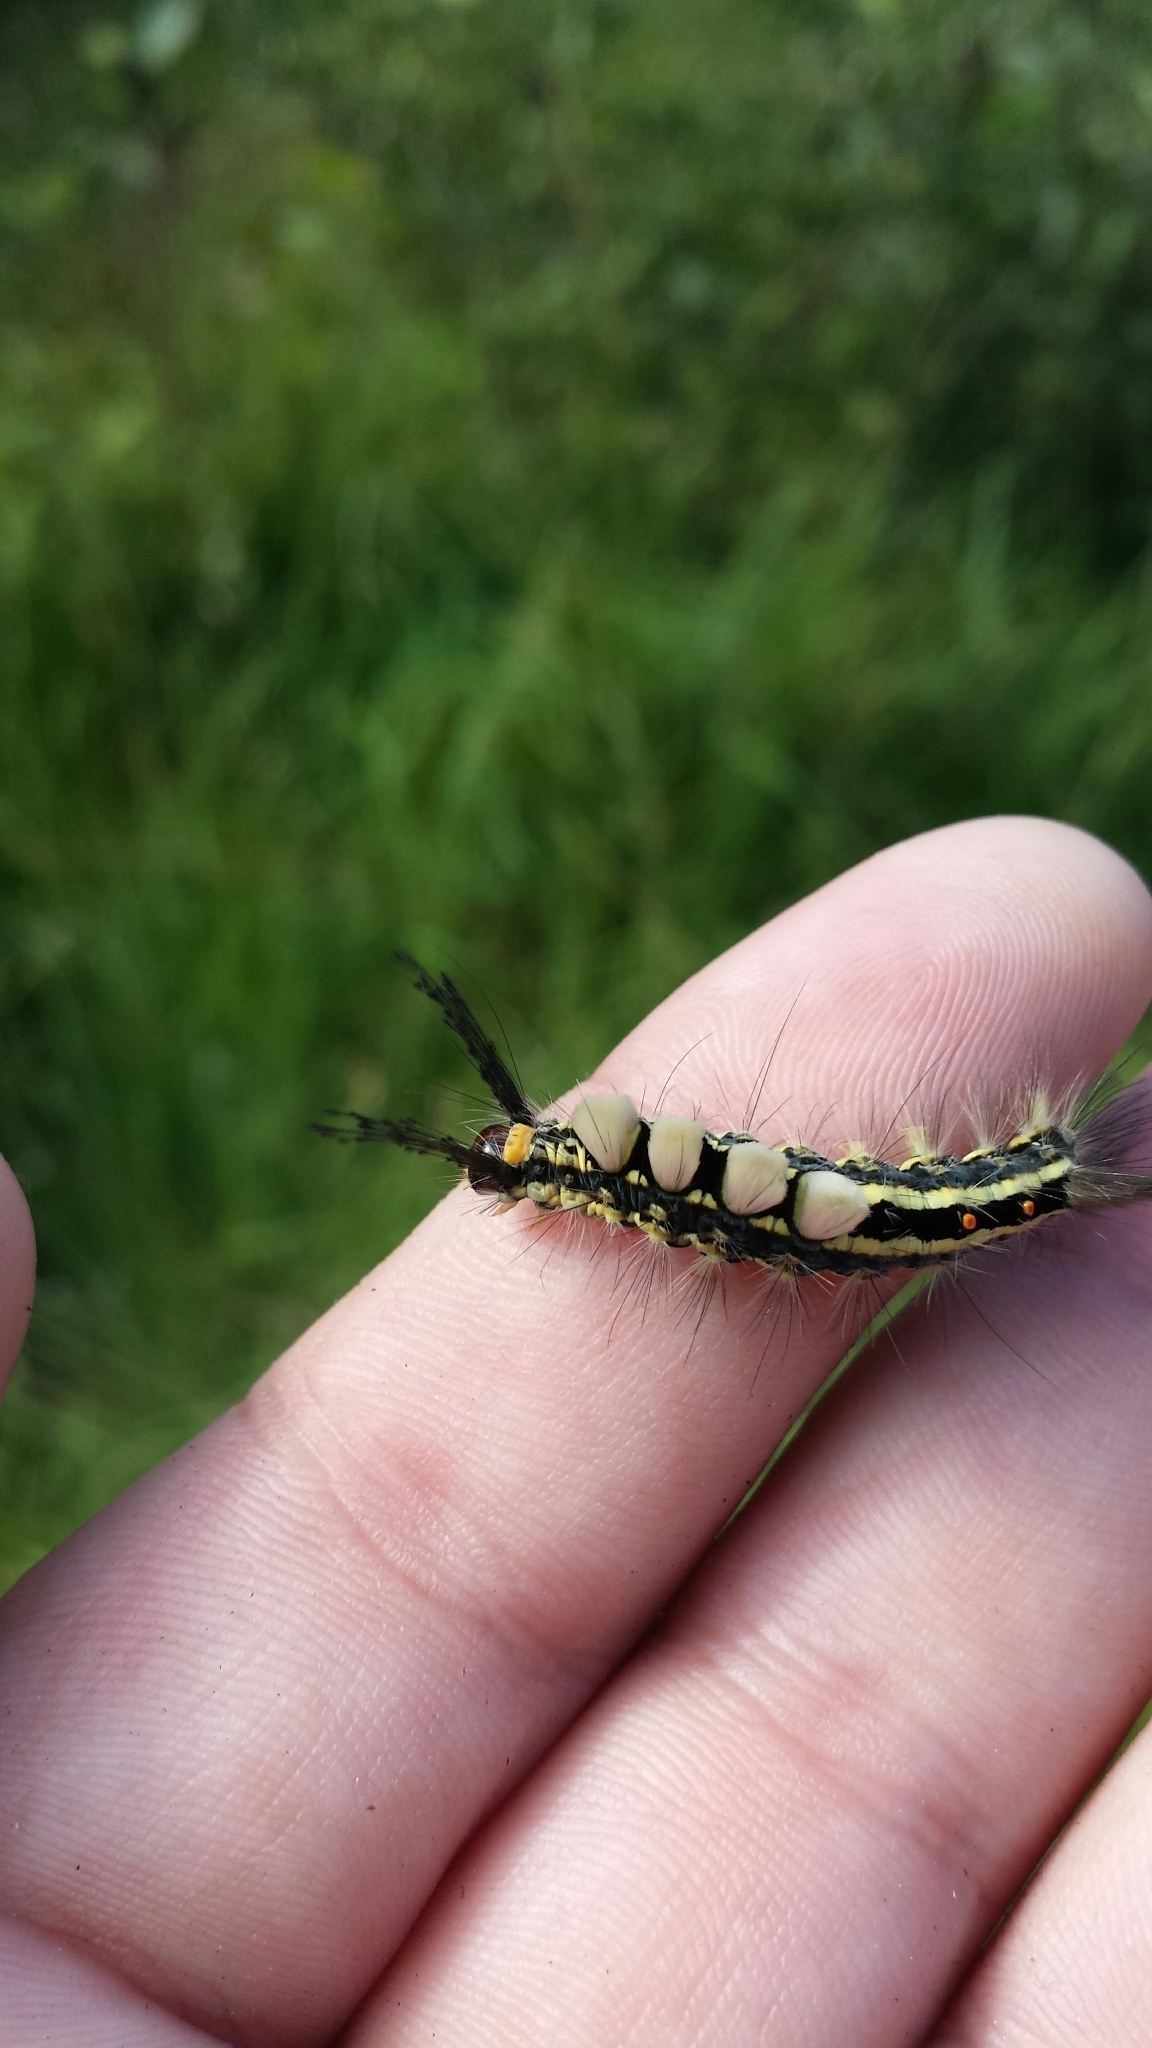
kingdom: Animalia
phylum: Arthropoda
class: Insecta
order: Lepidoptera
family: Erebidae
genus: Orgyia
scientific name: Orgyia leucostigma
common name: White-marked tussock moth
